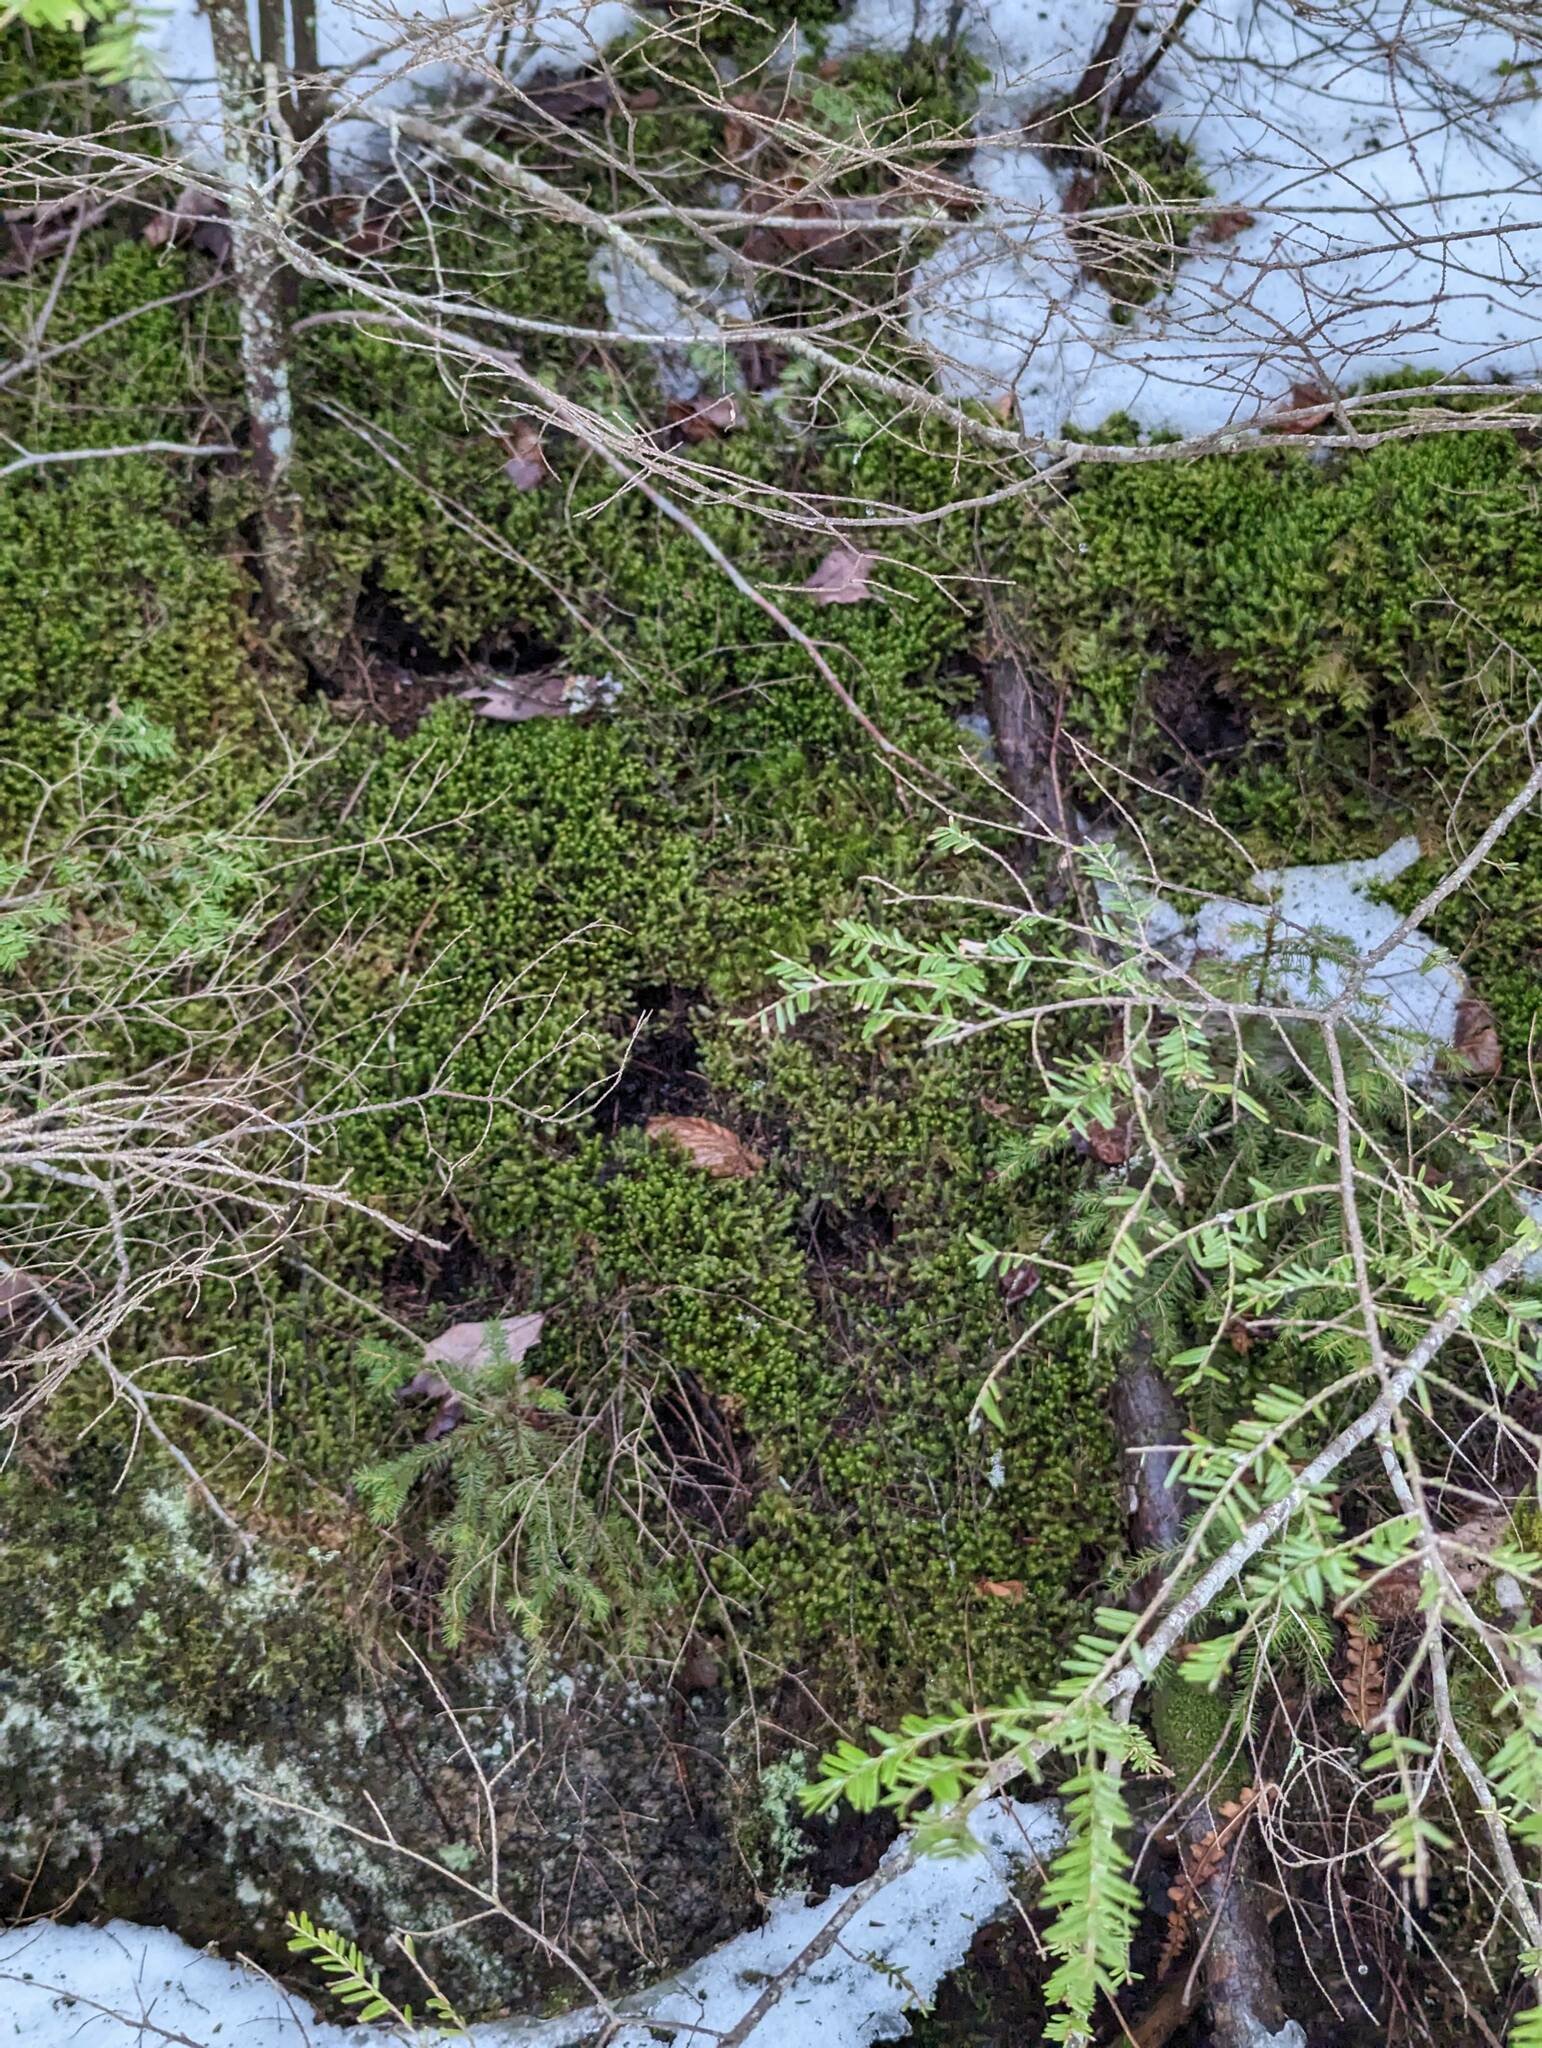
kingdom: Plantae
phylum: Marchantiophyta
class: Jungermanniopsida
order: Jungermanniales
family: Lepidoziaceae
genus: Bazzania
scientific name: Bazzania trilobata
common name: Three-lobed whipwort
